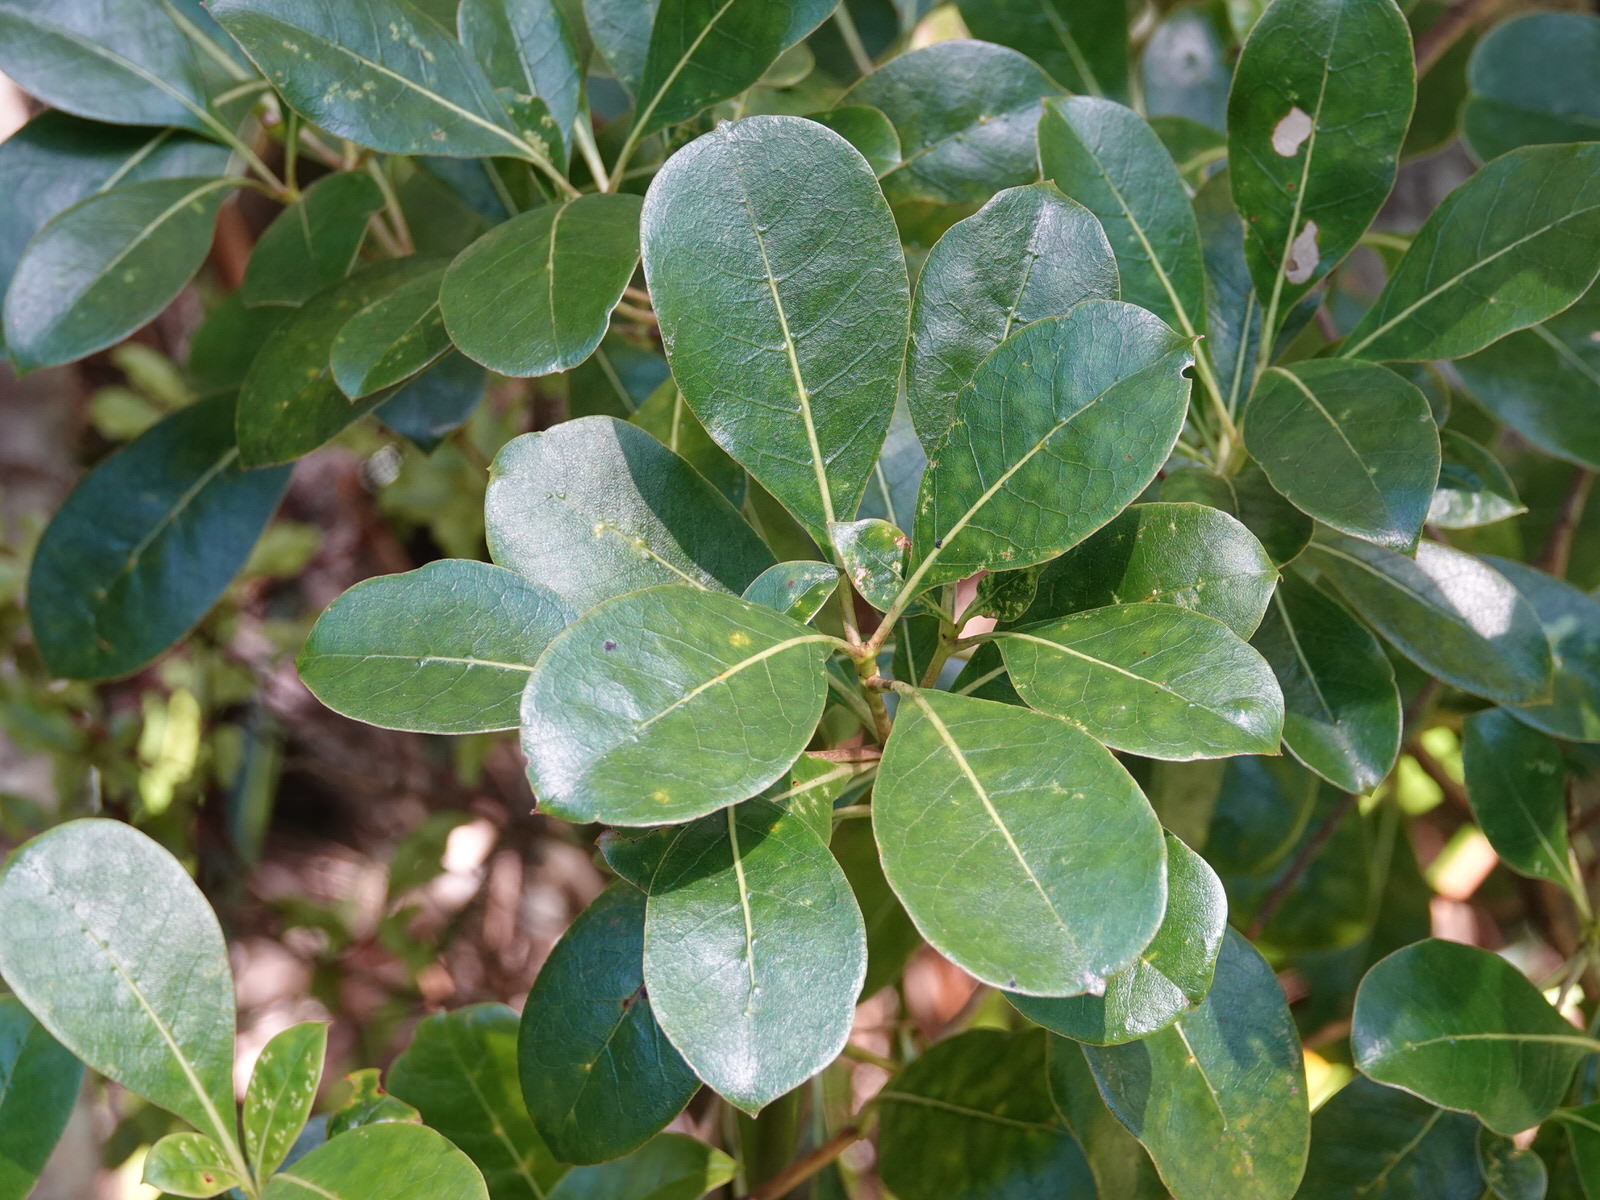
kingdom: Plantae
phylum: Tracheophyta
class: Magnoliopsida
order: Gentianales
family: Rubiaceae
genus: Coprosma
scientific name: Coprosma lucida
